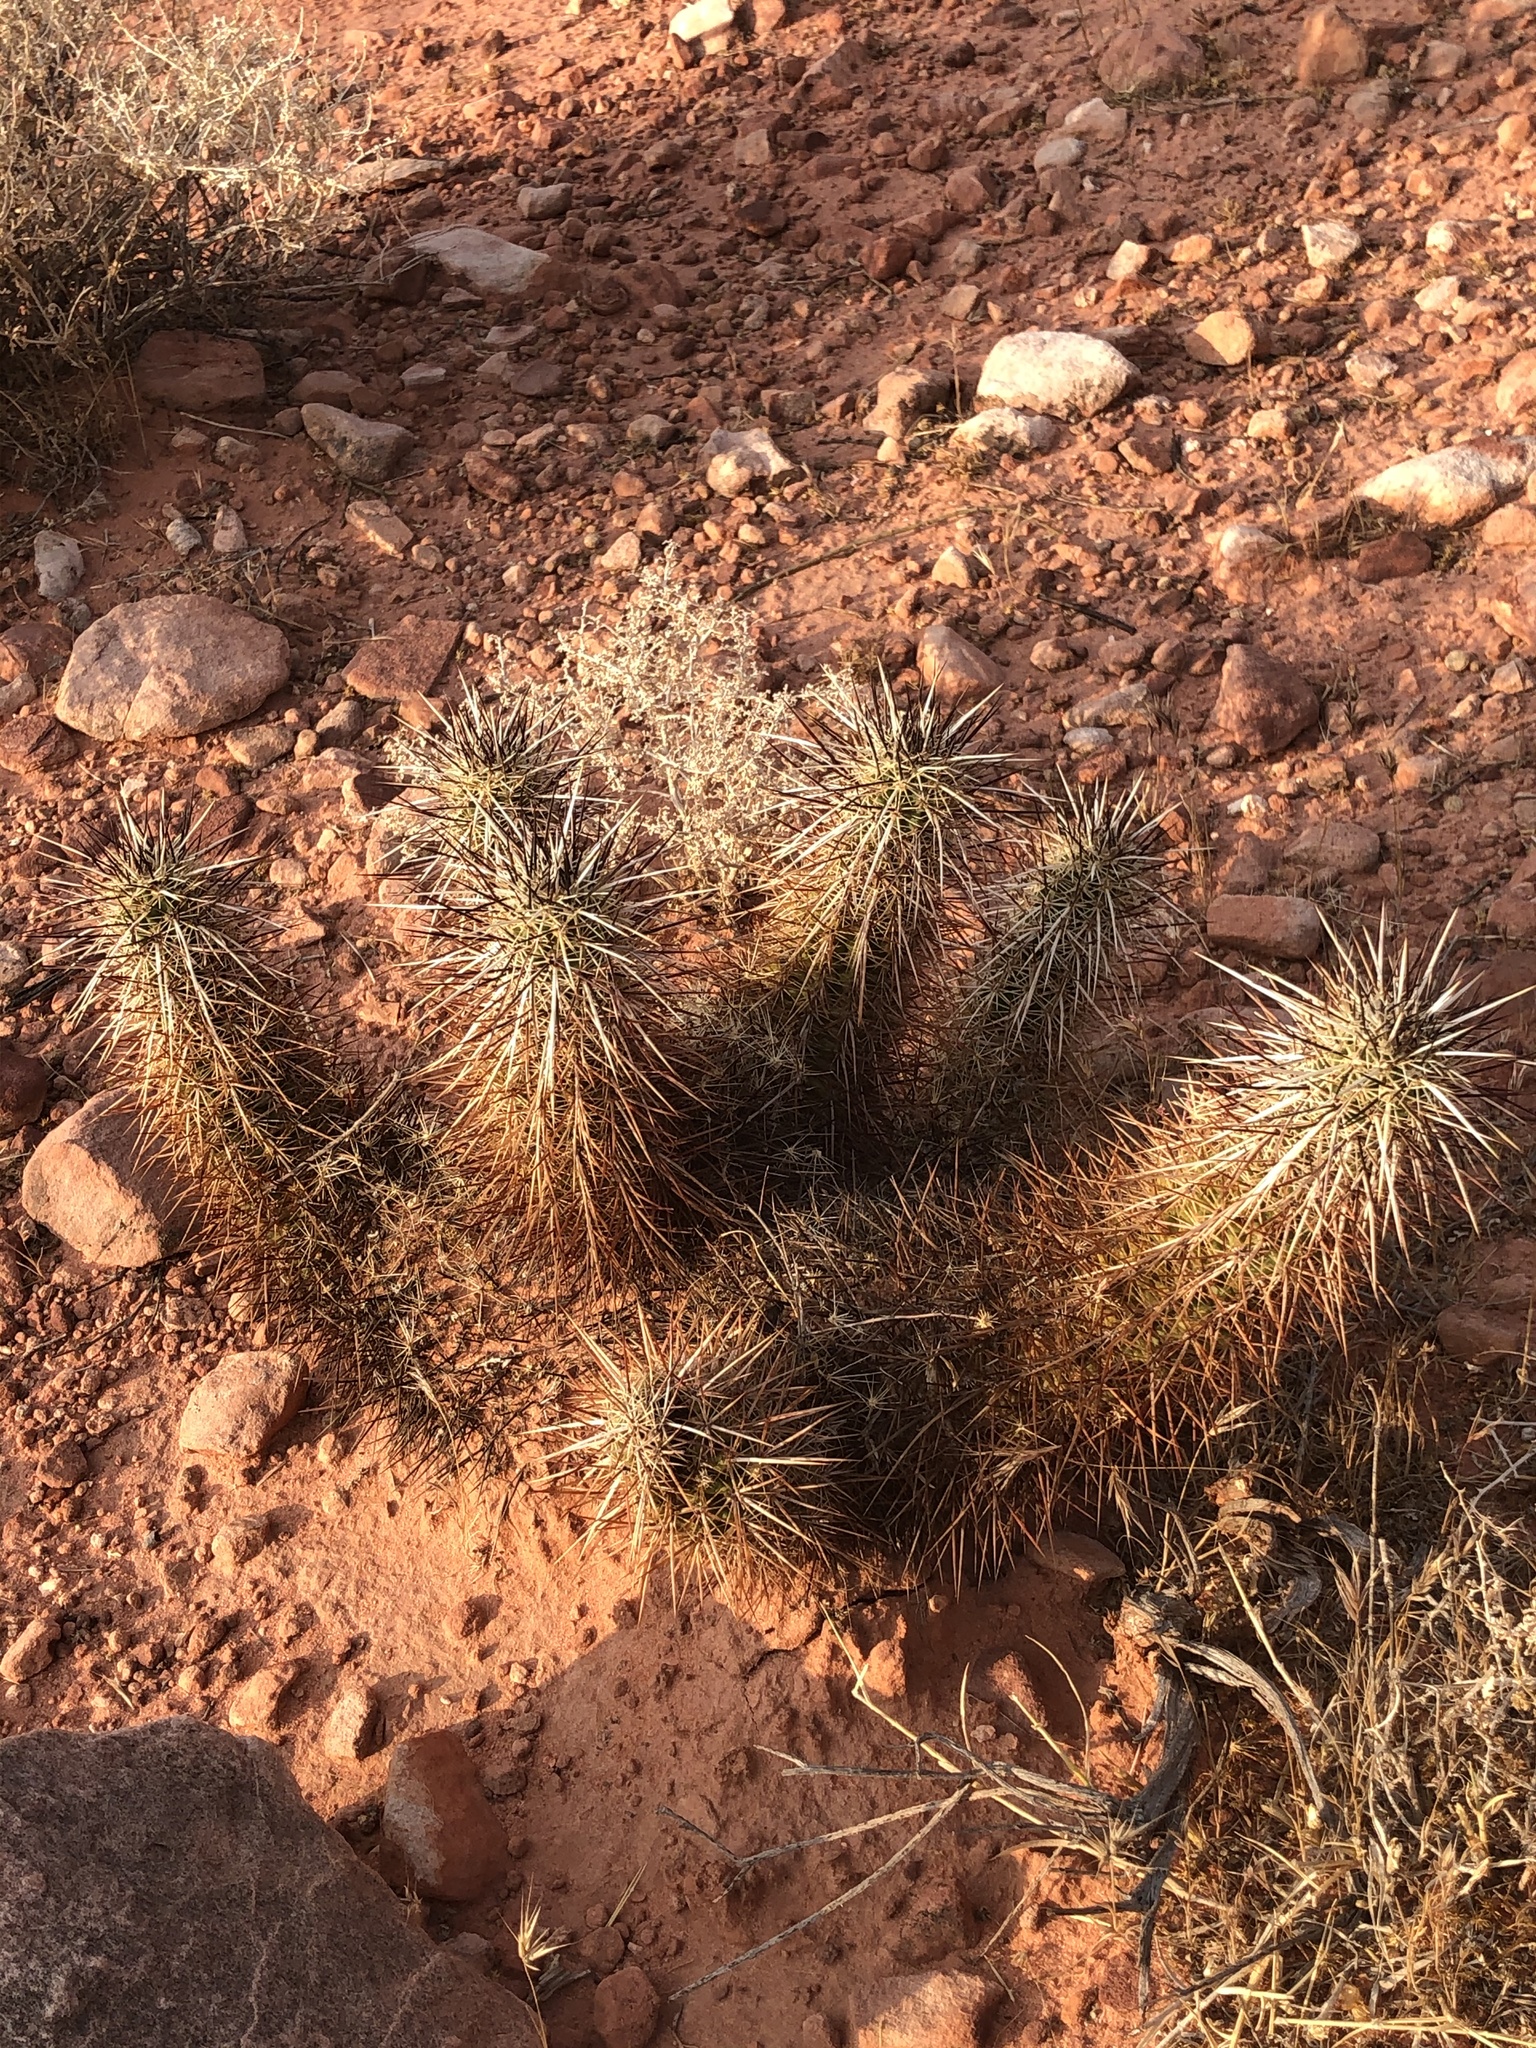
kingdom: Plantae
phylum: Tracheophyta
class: Magnoliopsida
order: Caryophyllales
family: Cactaceae
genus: Echinocereus
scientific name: Echinocereus engelmannii
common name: Engelmann's hedgehog cactus
